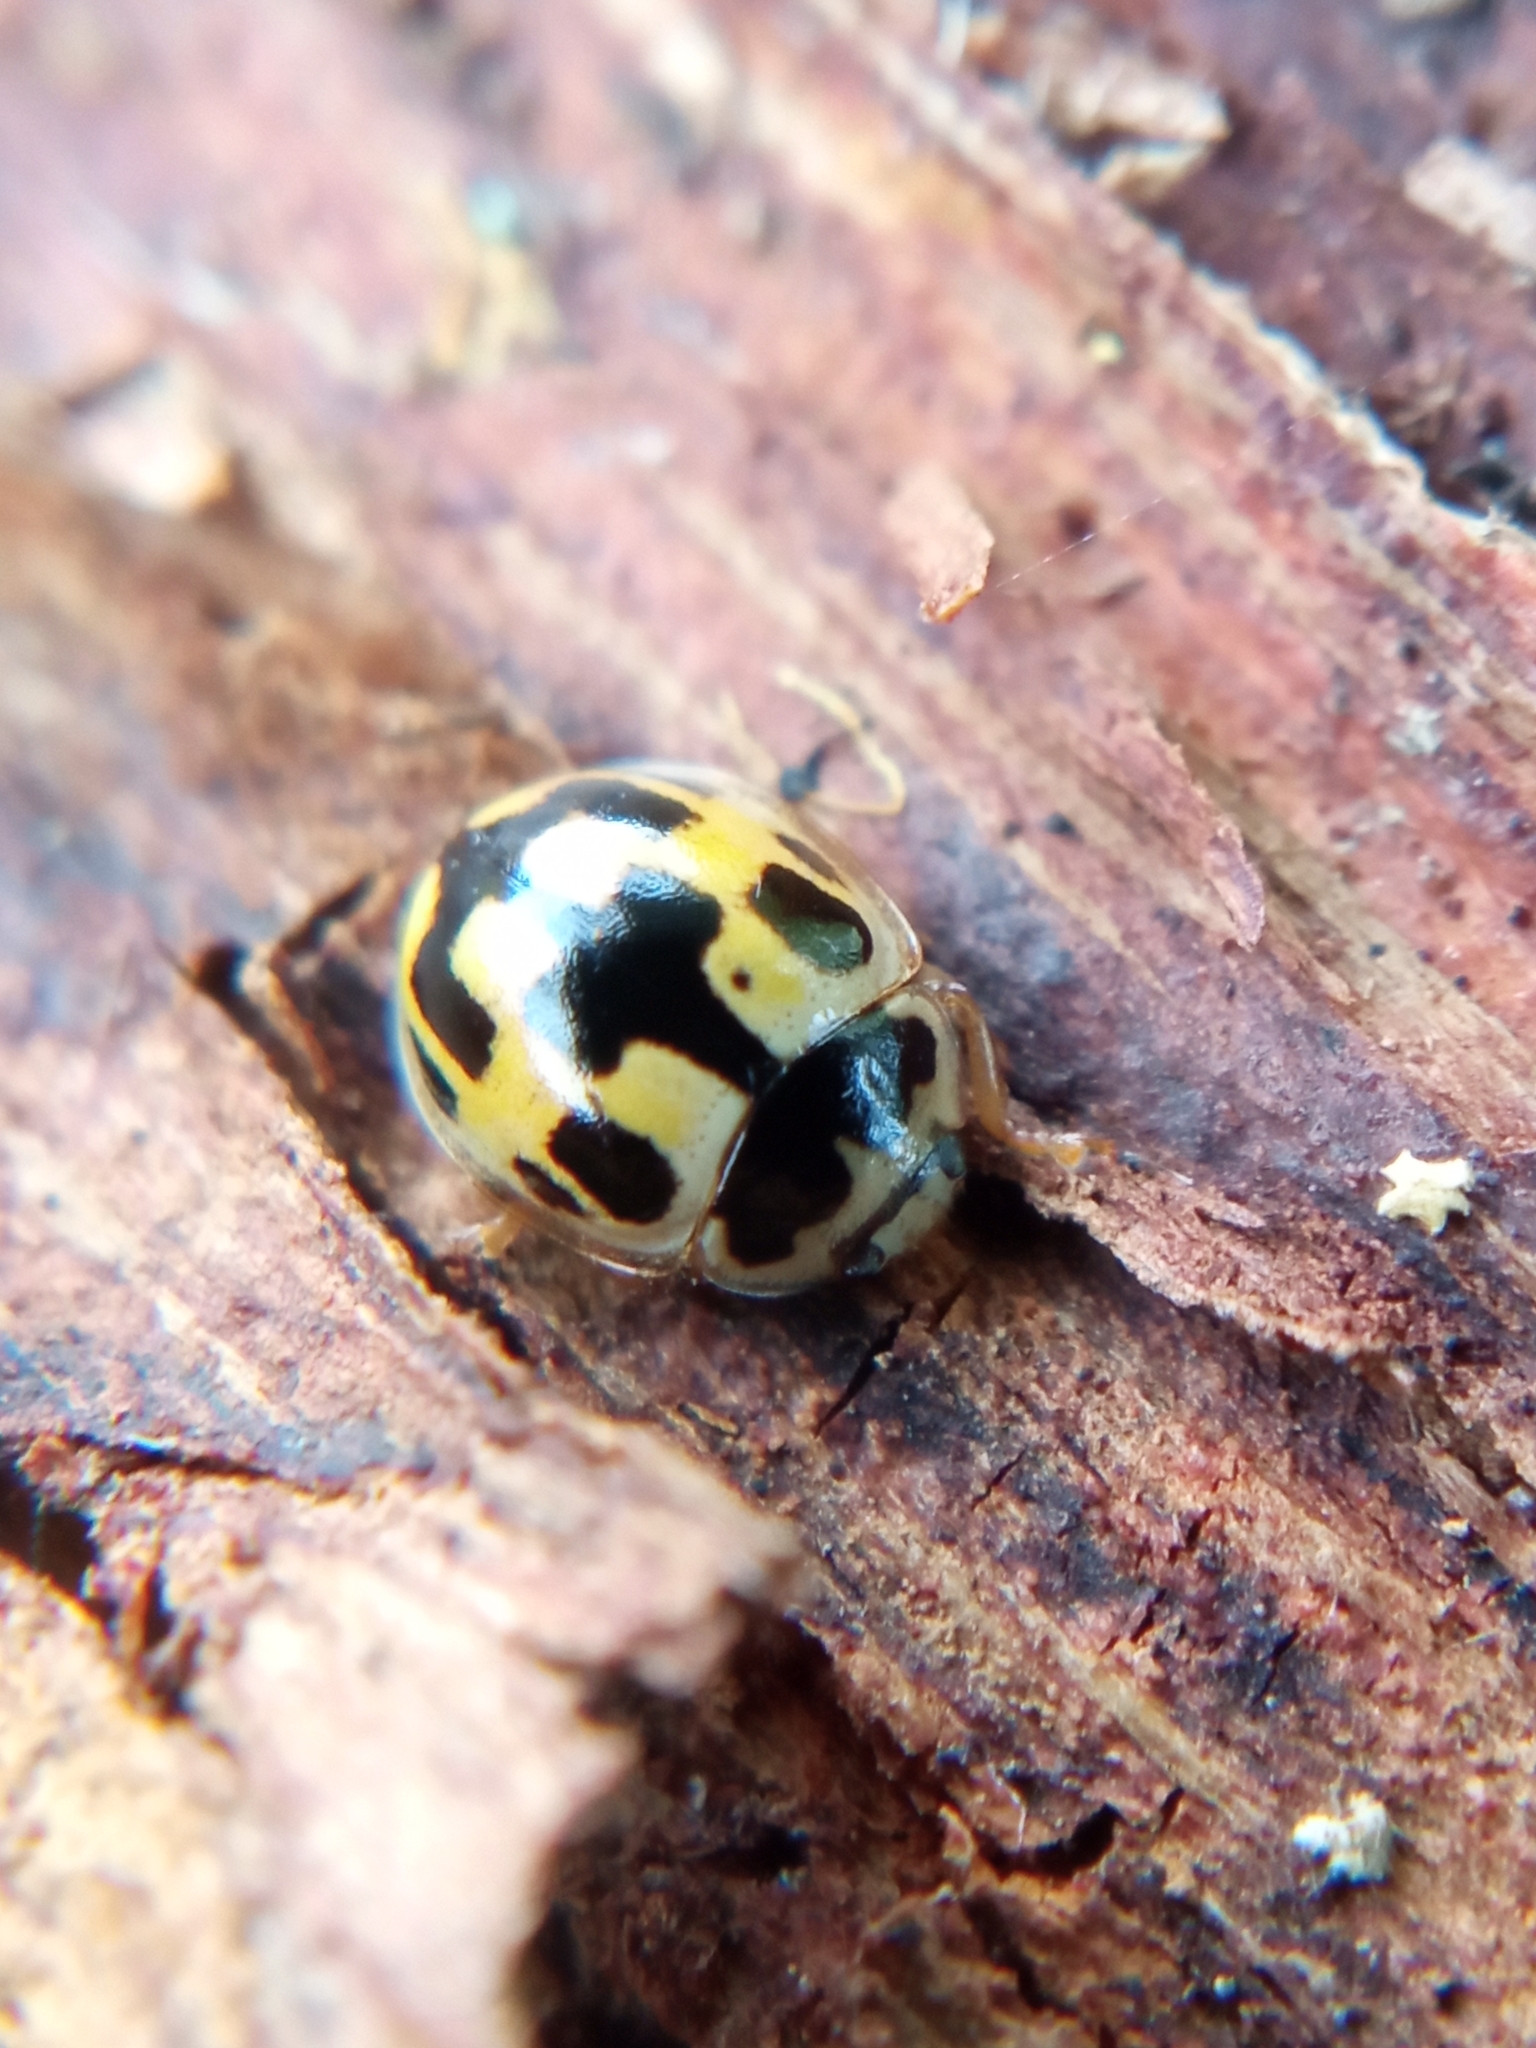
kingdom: Animalia
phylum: Arthropoda
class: Insecta
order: Coleoptera
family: Coccinellidae
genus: Propylaea
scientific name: Propylaea quatuordecimpunctata
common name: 14-spotted ladybird beetle
